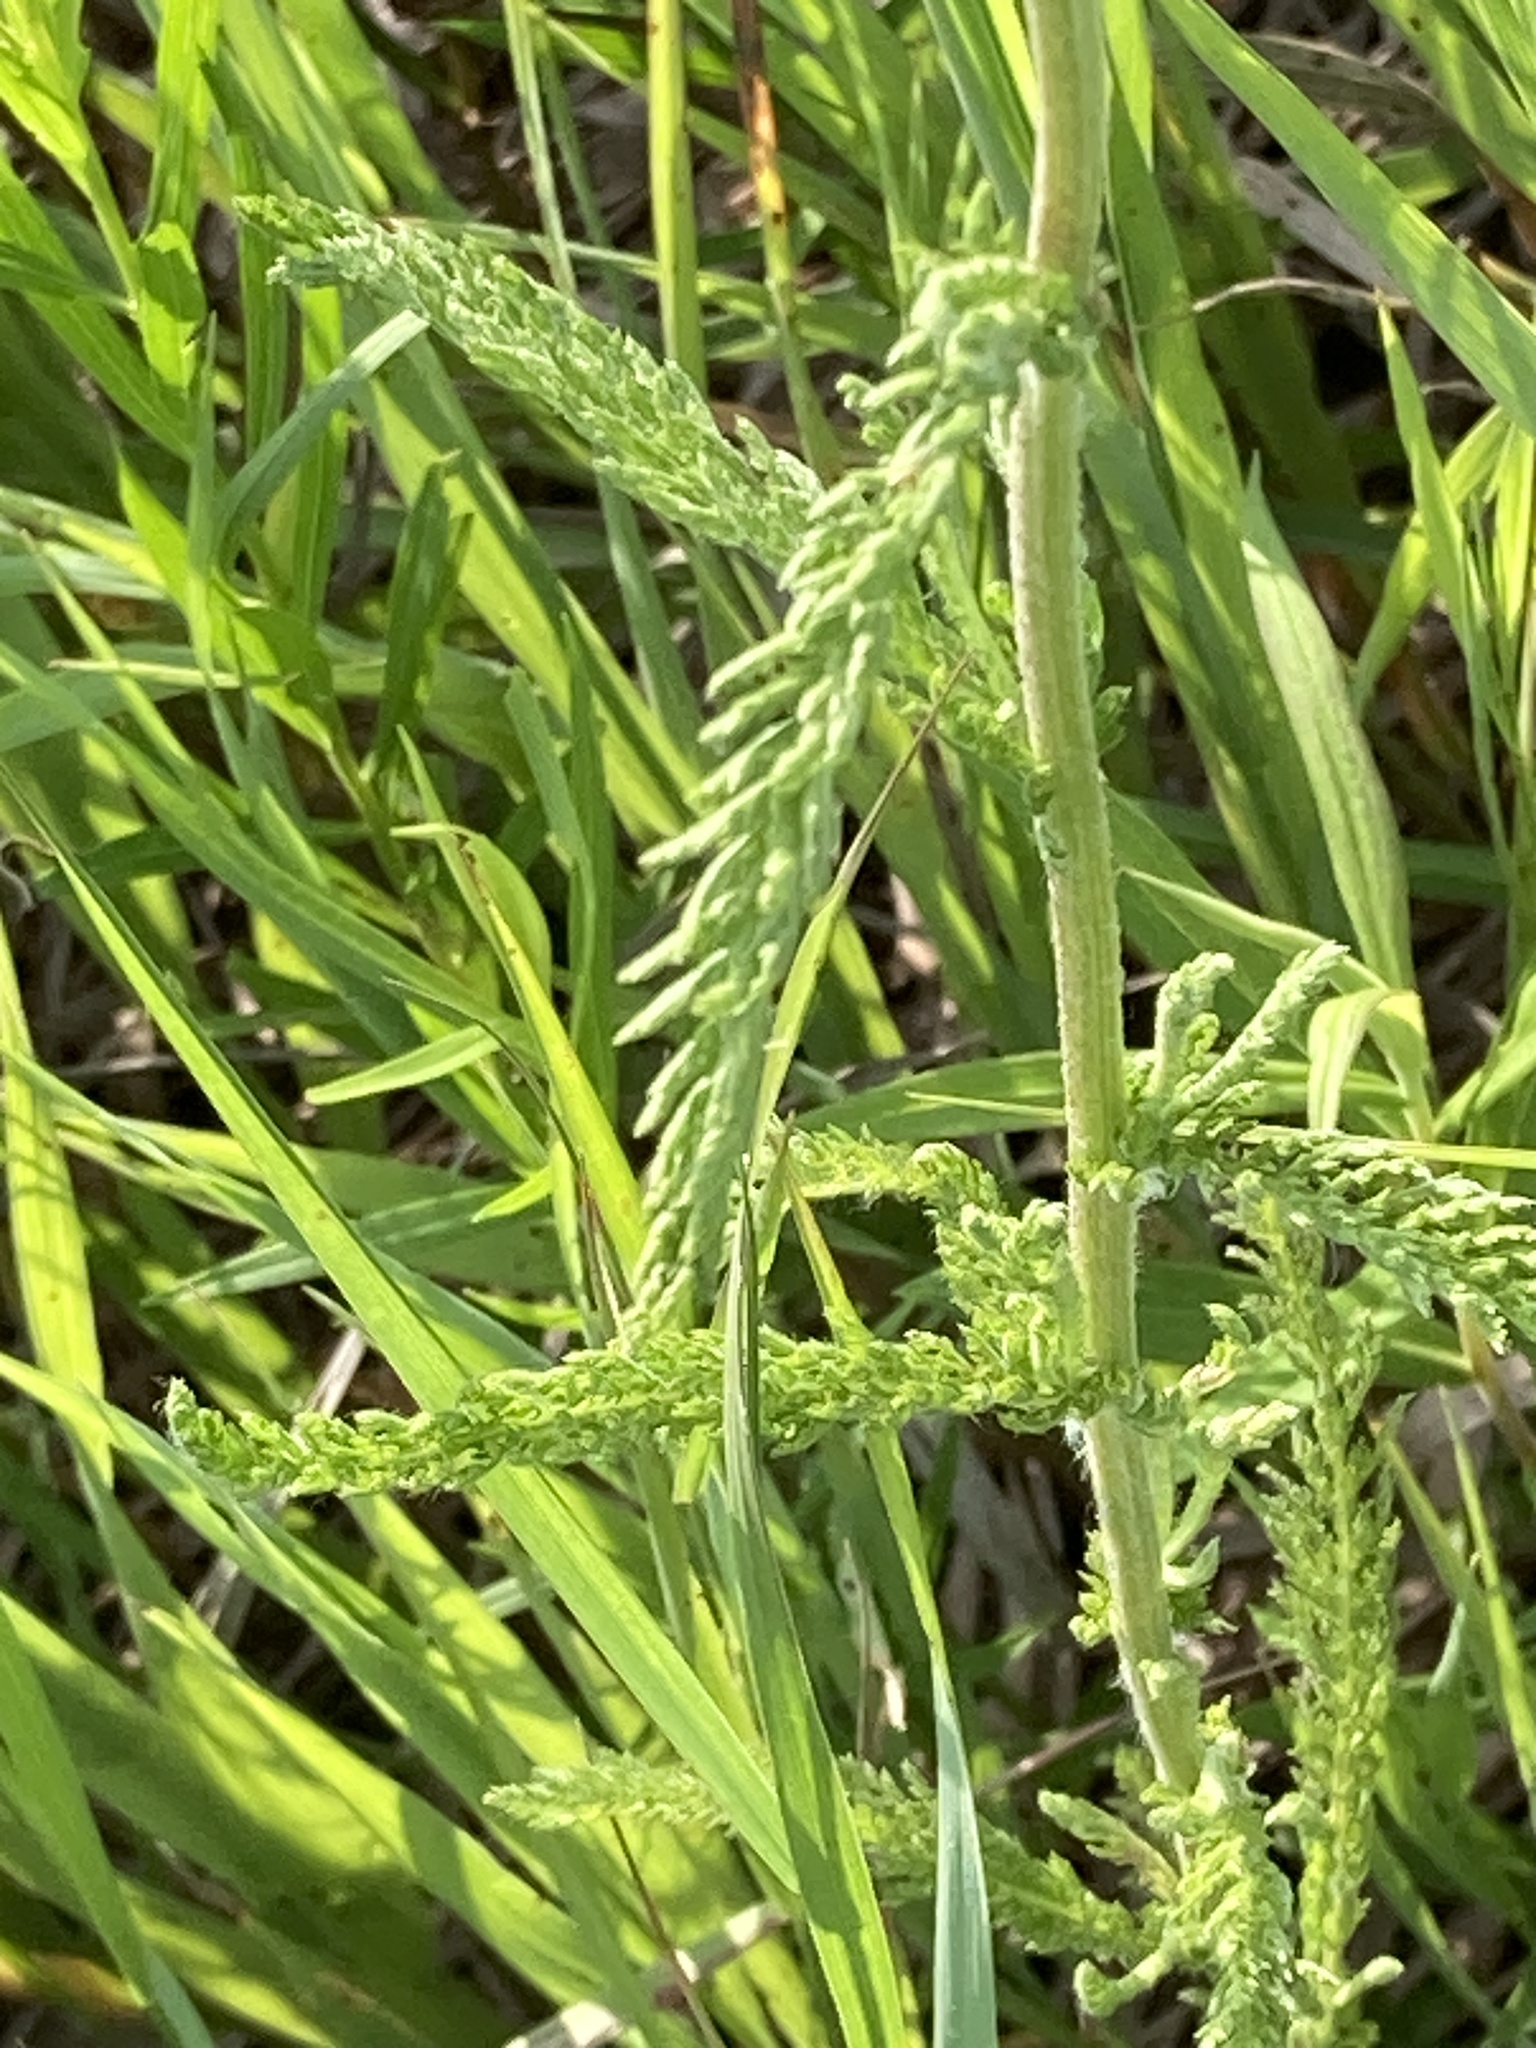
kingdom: Plantae
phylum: Tracheophyta
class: Magnoliopsida
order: Asterales
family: Asteraceae
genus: Achillea
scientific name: Achillea millefolium
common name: Yarrow
